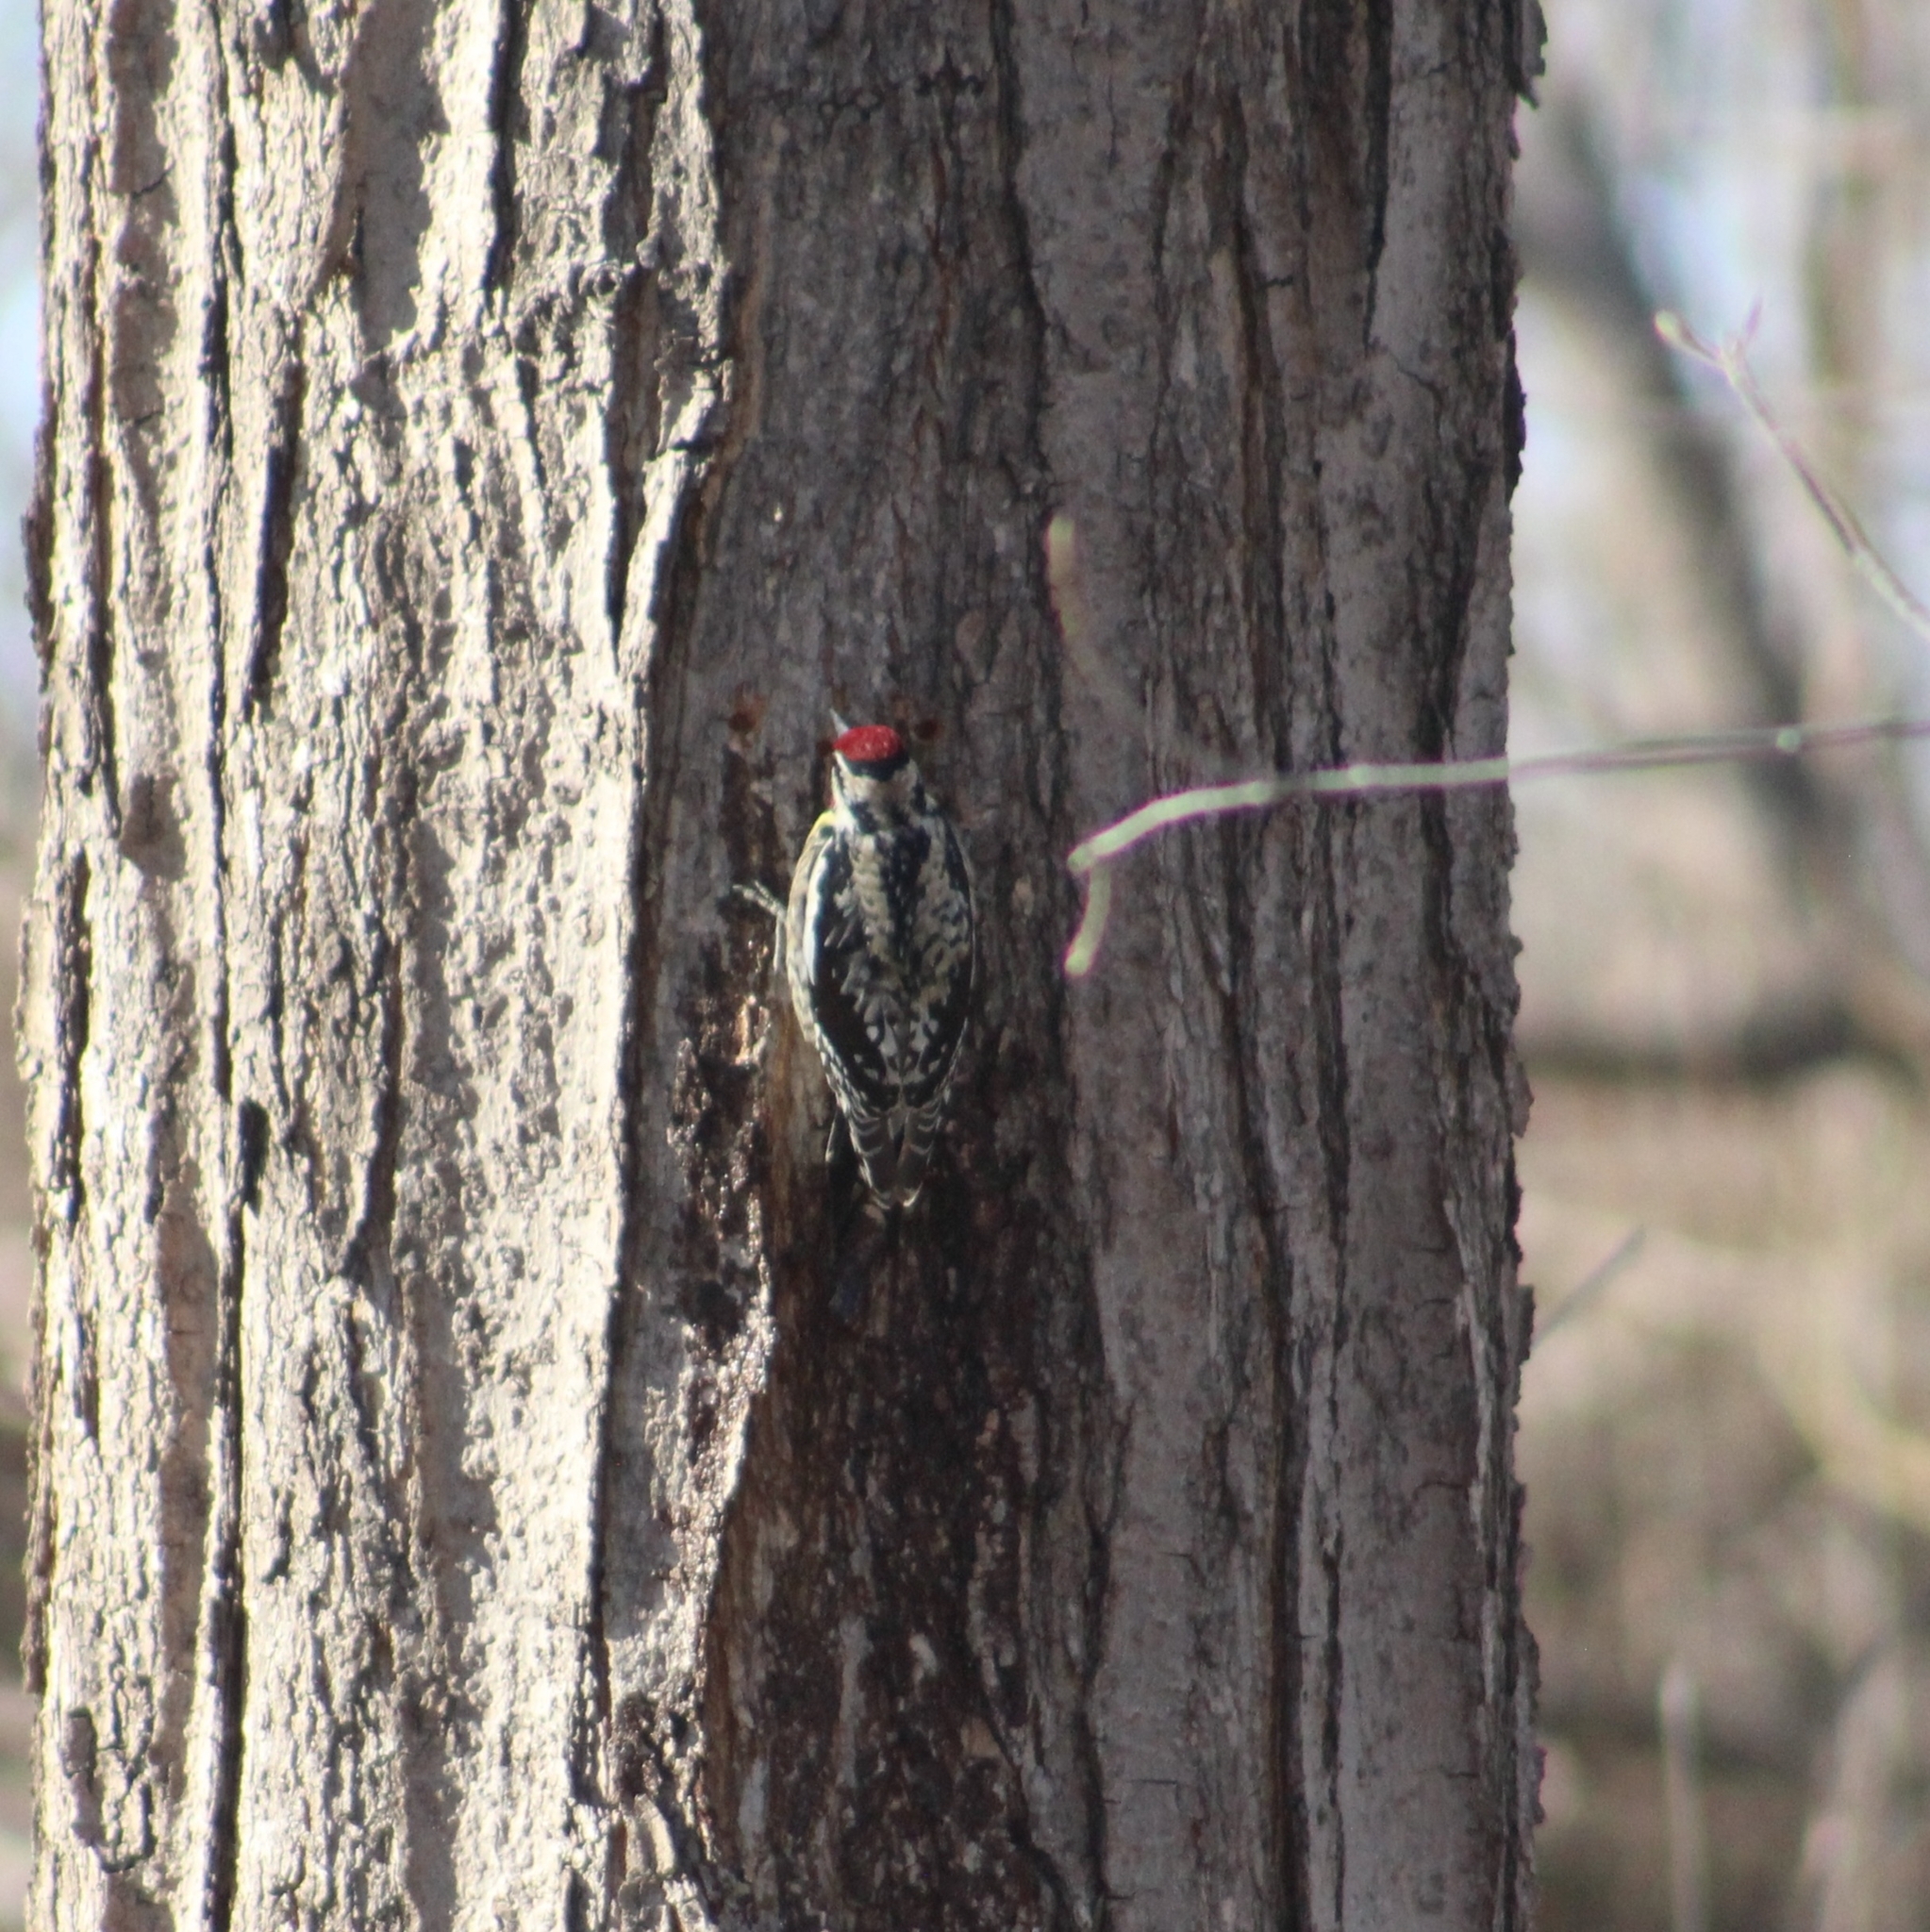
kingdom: Animalia
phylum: Chordata
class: Aves
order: Piciformes
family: Picidae
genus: Sphyrapicus
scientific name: Sphyrapicus varius
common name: Yellow-bellied sapsucker
